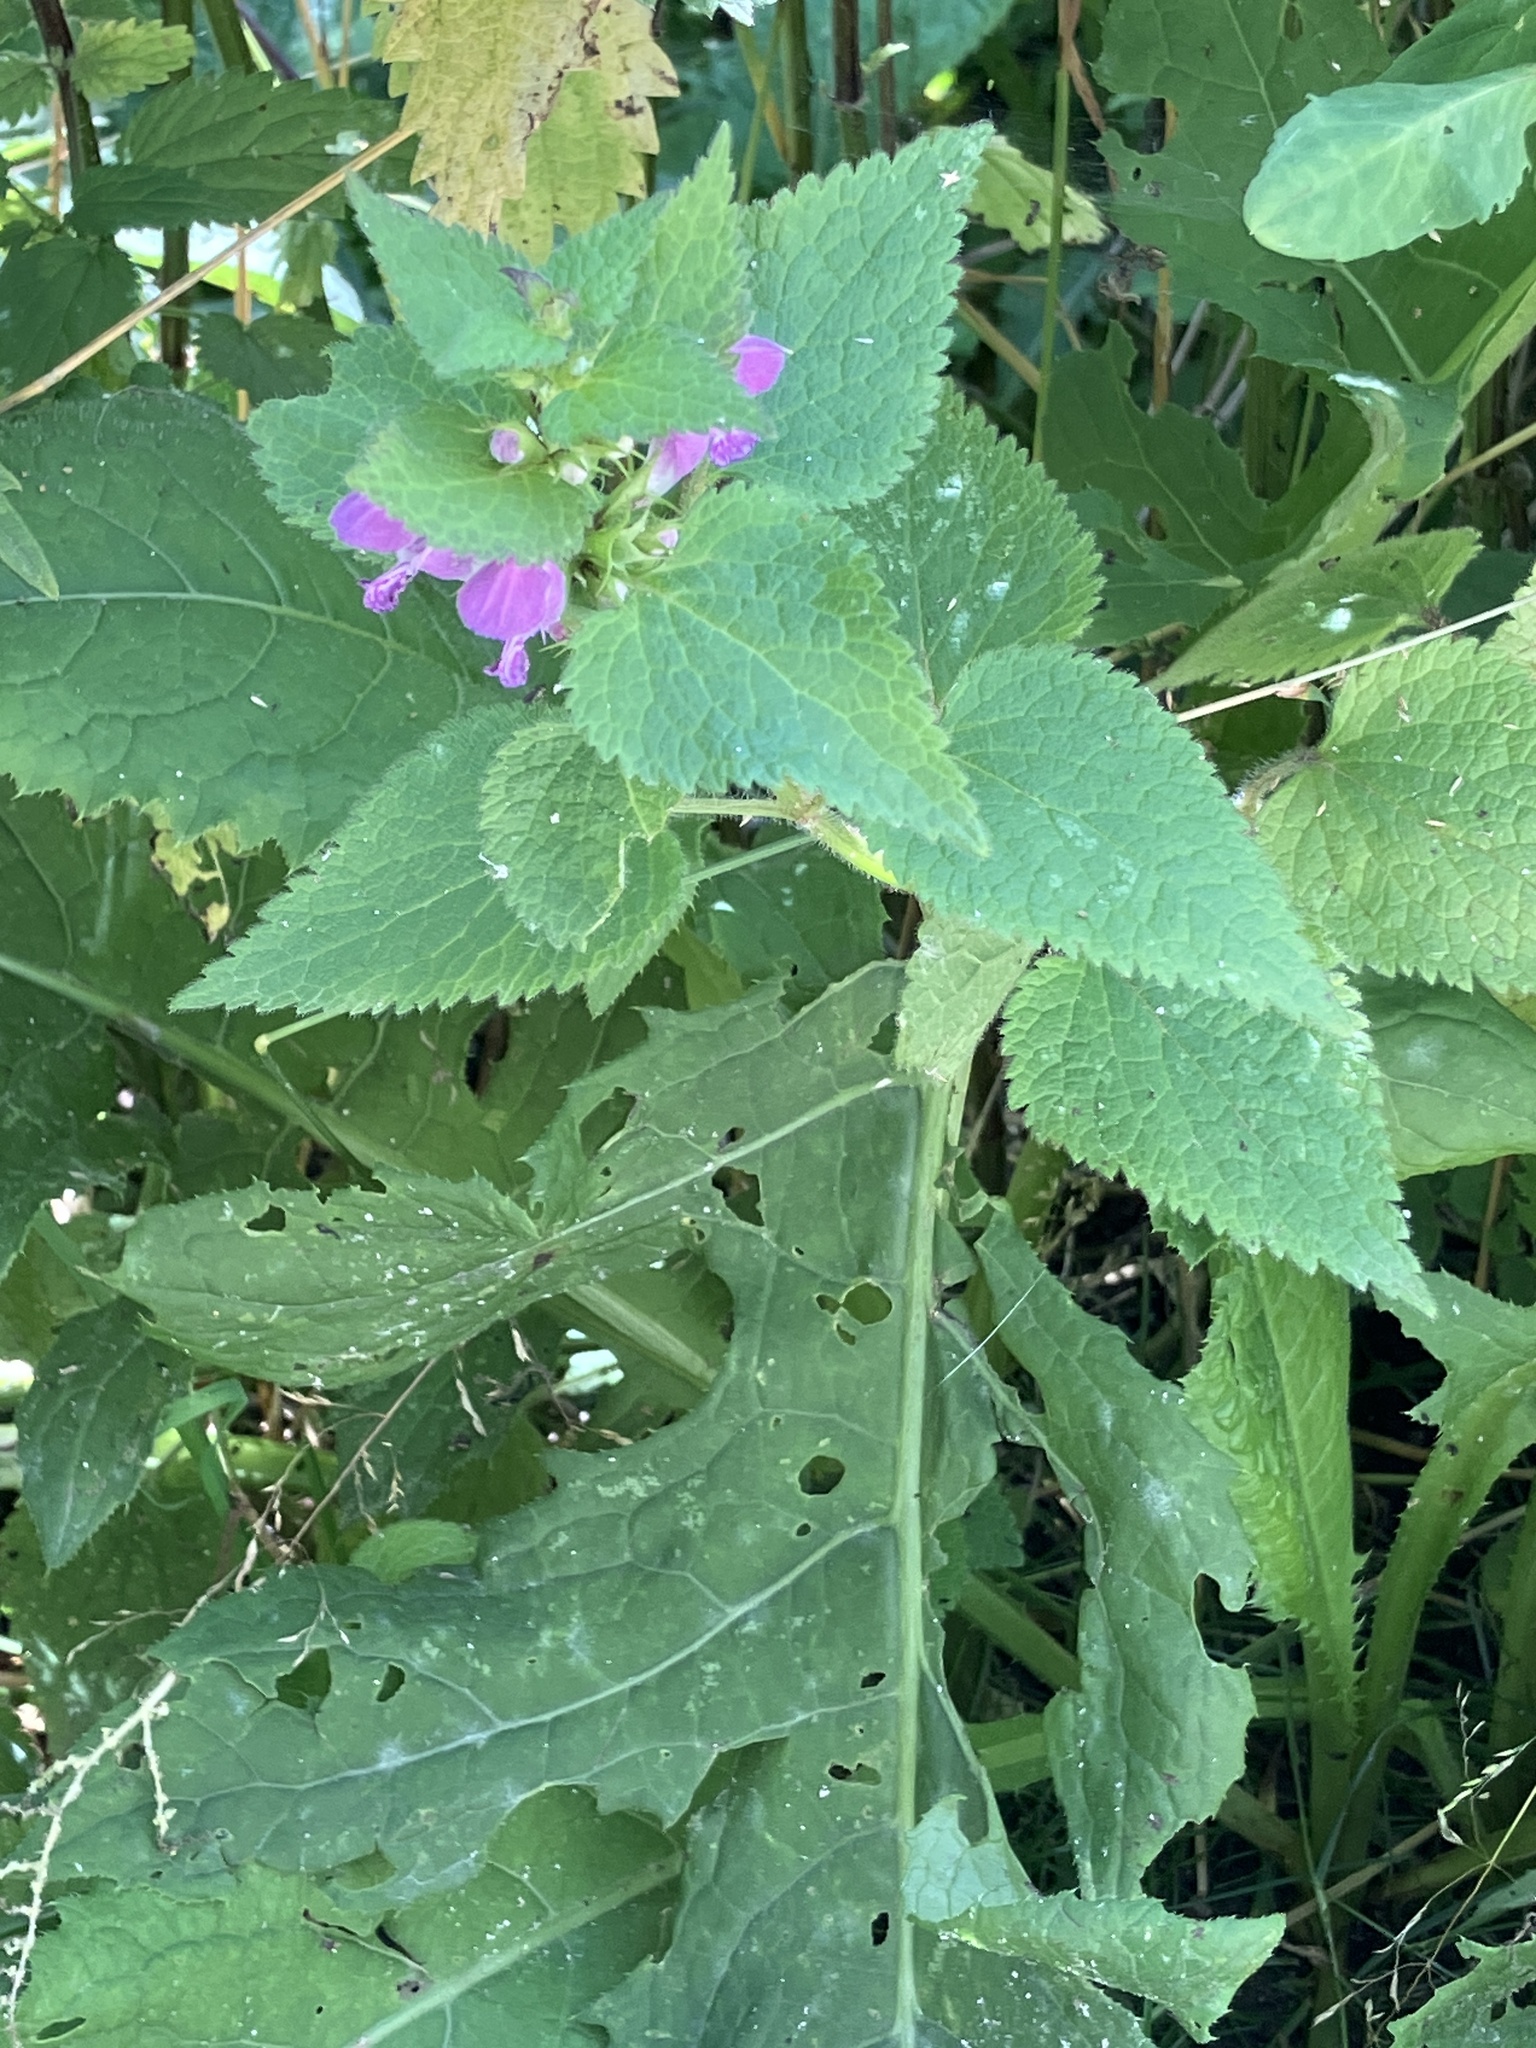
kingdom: Plantae
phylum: Tracheophyta
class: Magnoliopsida
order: Lamiales
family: Lamiaceae
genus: Lamium
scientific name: Lamium maculatum
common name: Spotted dead-nettle
